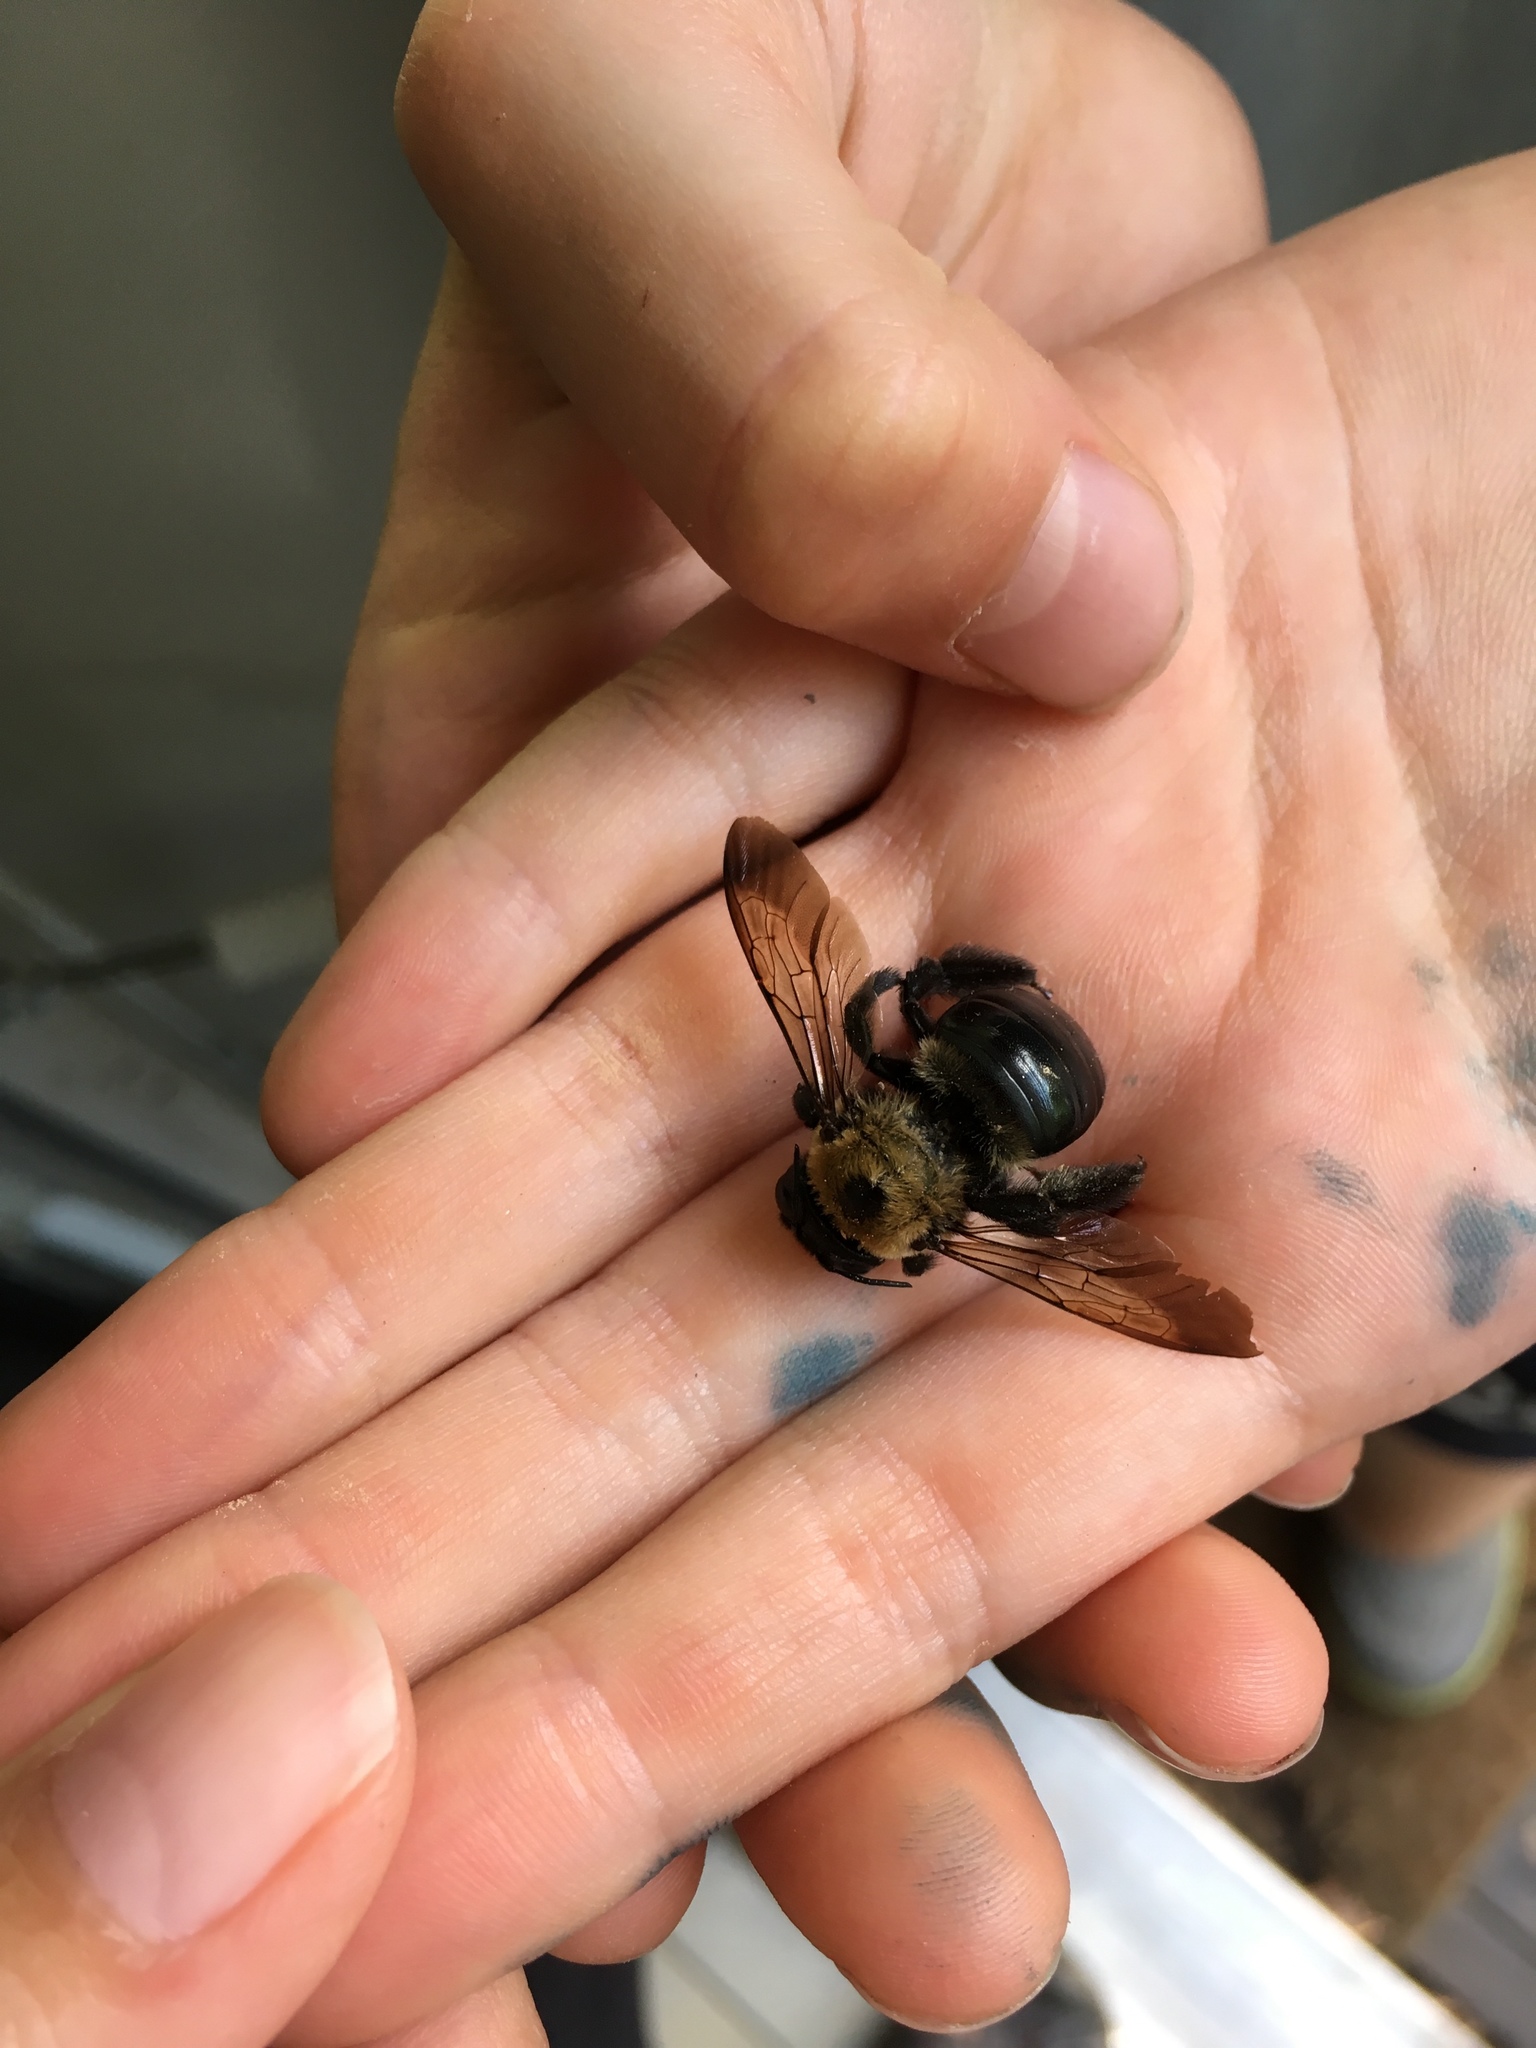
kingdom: Animalia
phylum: Arthropoda
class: Insecta
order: Hymenoptera
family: Apidae
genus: Xylocopa
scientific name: Xylocopa virginica
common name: Carpenter bee
